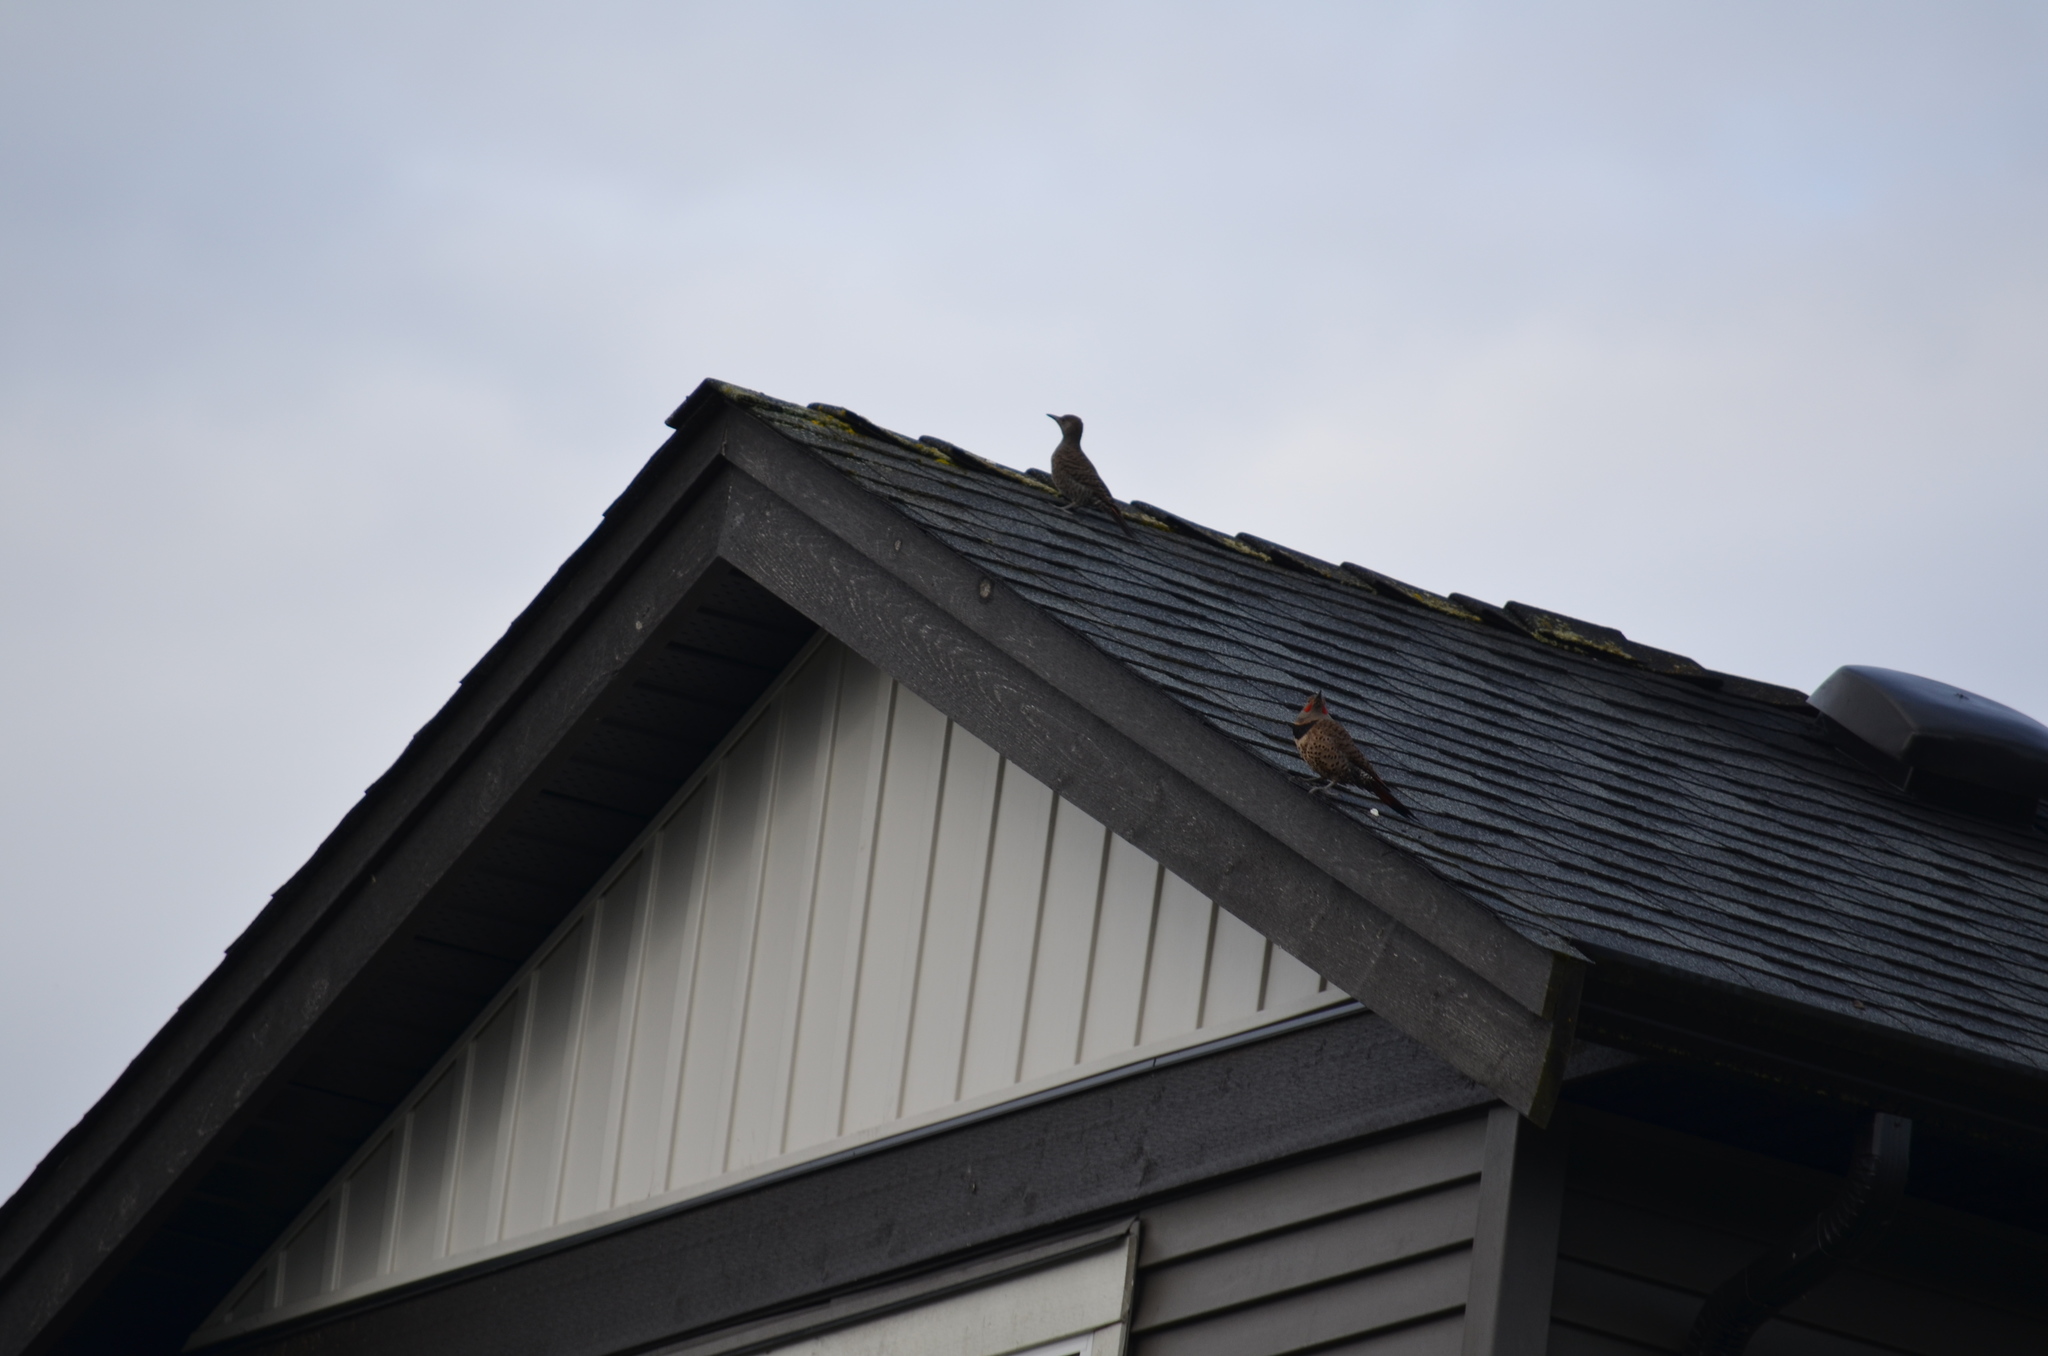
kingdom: Animalia
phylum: Chordata
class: Aves
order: Piciformes
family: Picidae
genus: Colaptes
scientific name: Colaptes auratus
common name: Northern flicker
